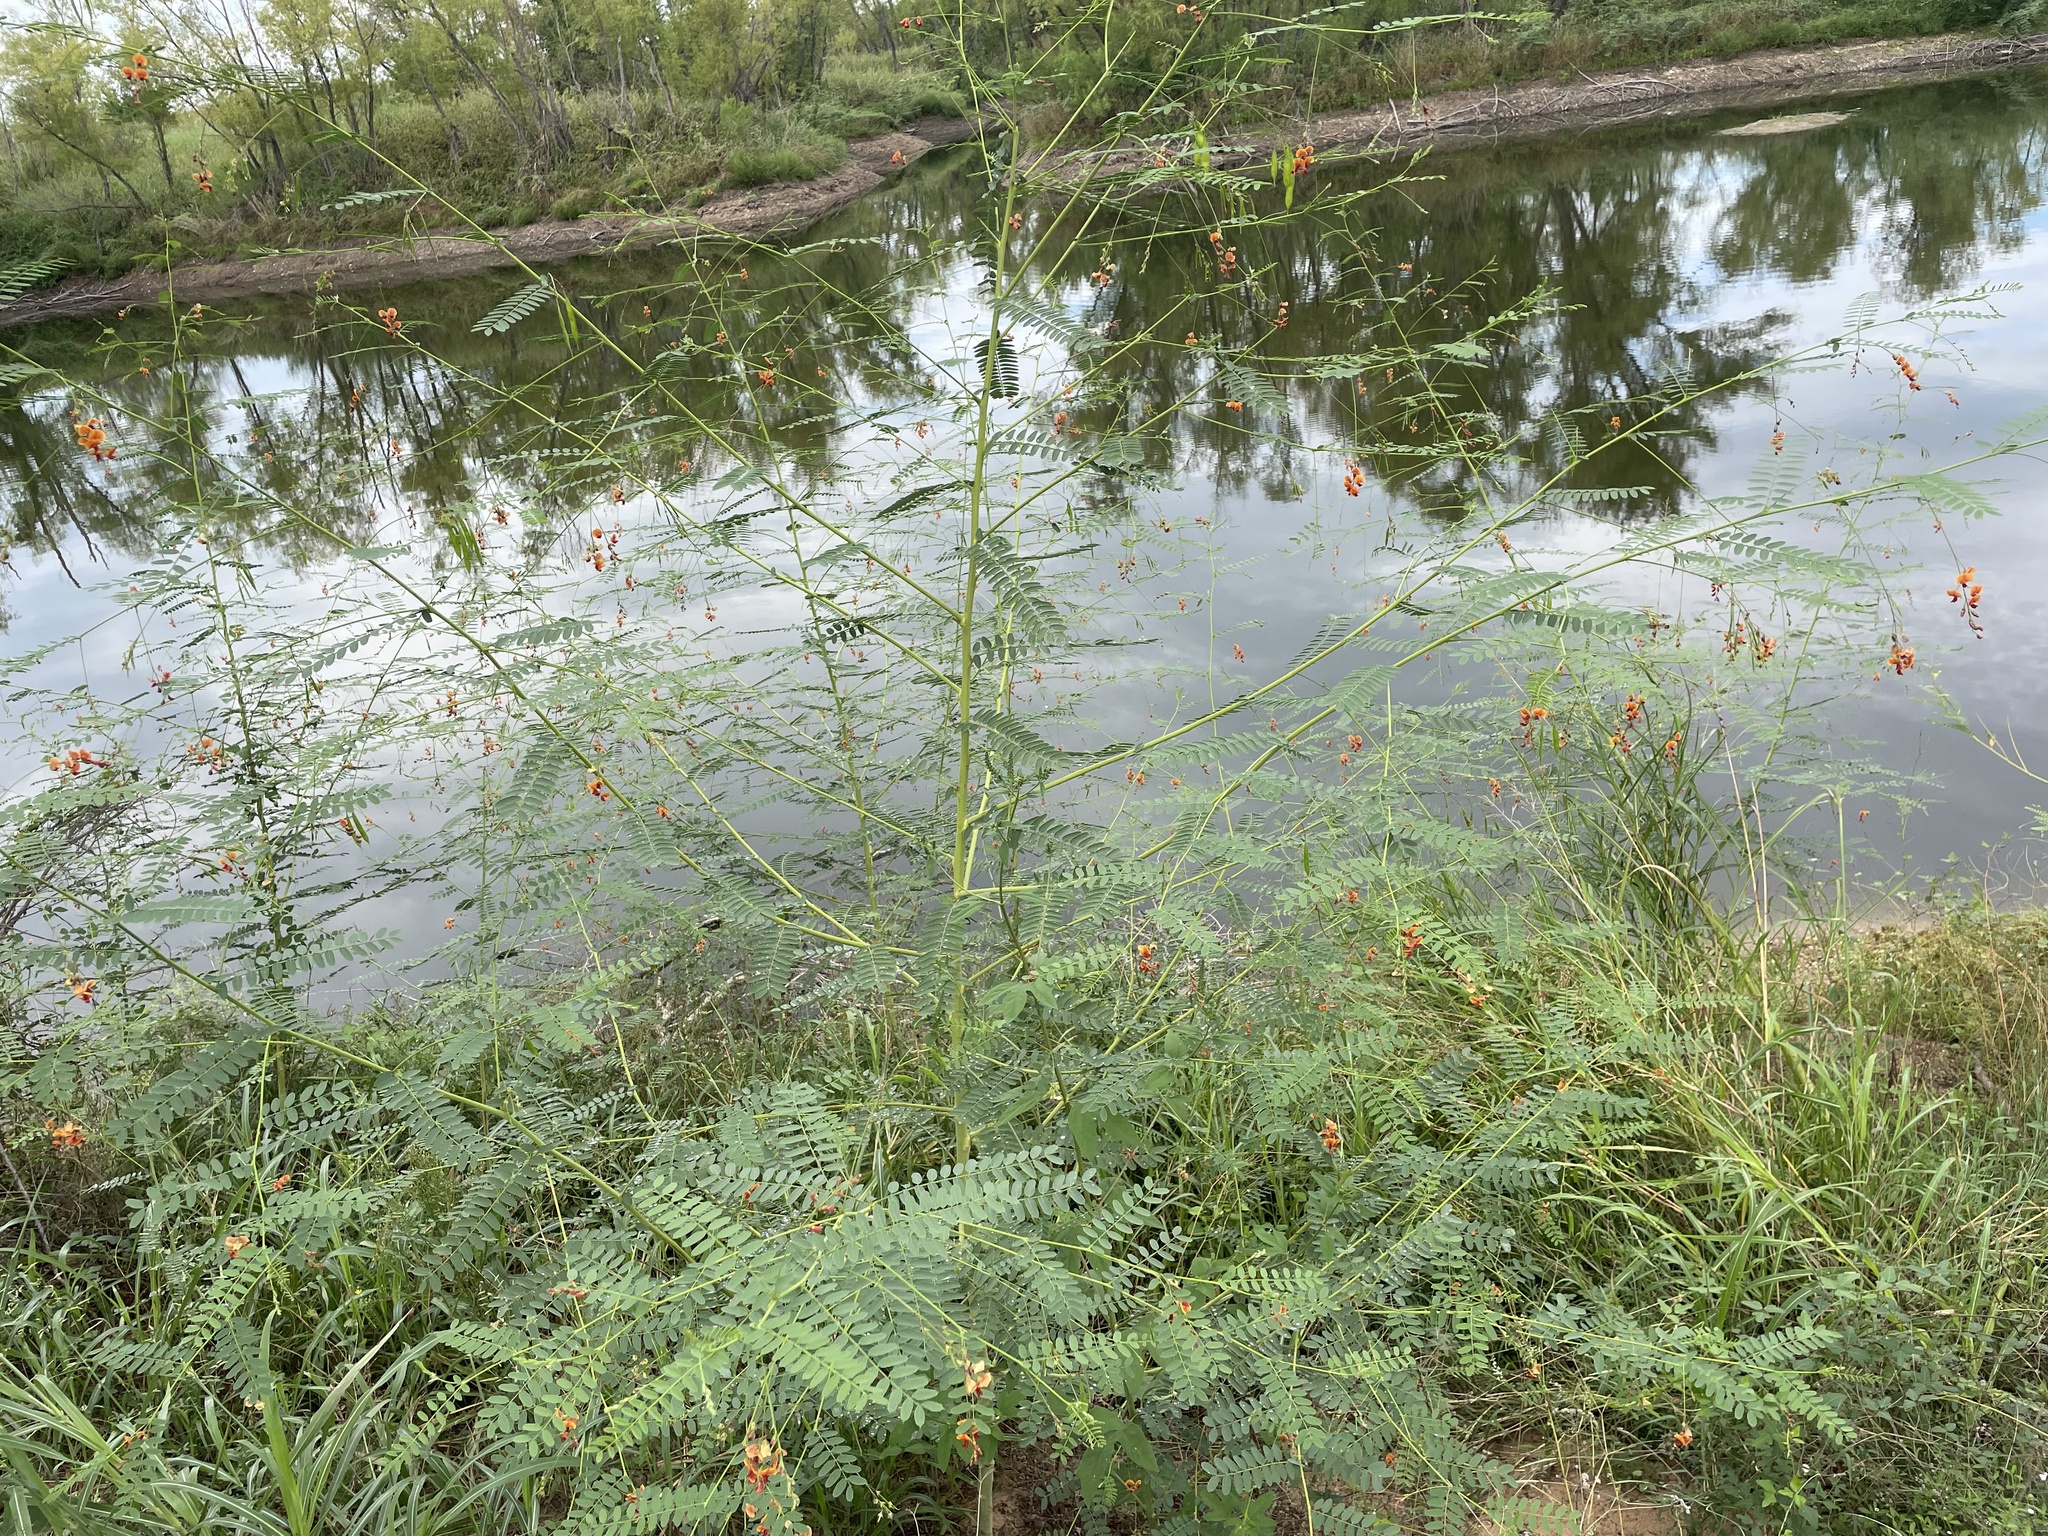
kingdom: Plantae
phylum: Tracheophyta
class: Magnoliopsida
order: Fabales
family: Fabaceae
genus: Sesbania
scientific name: Sesbania vesicaria
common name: Bagpod
